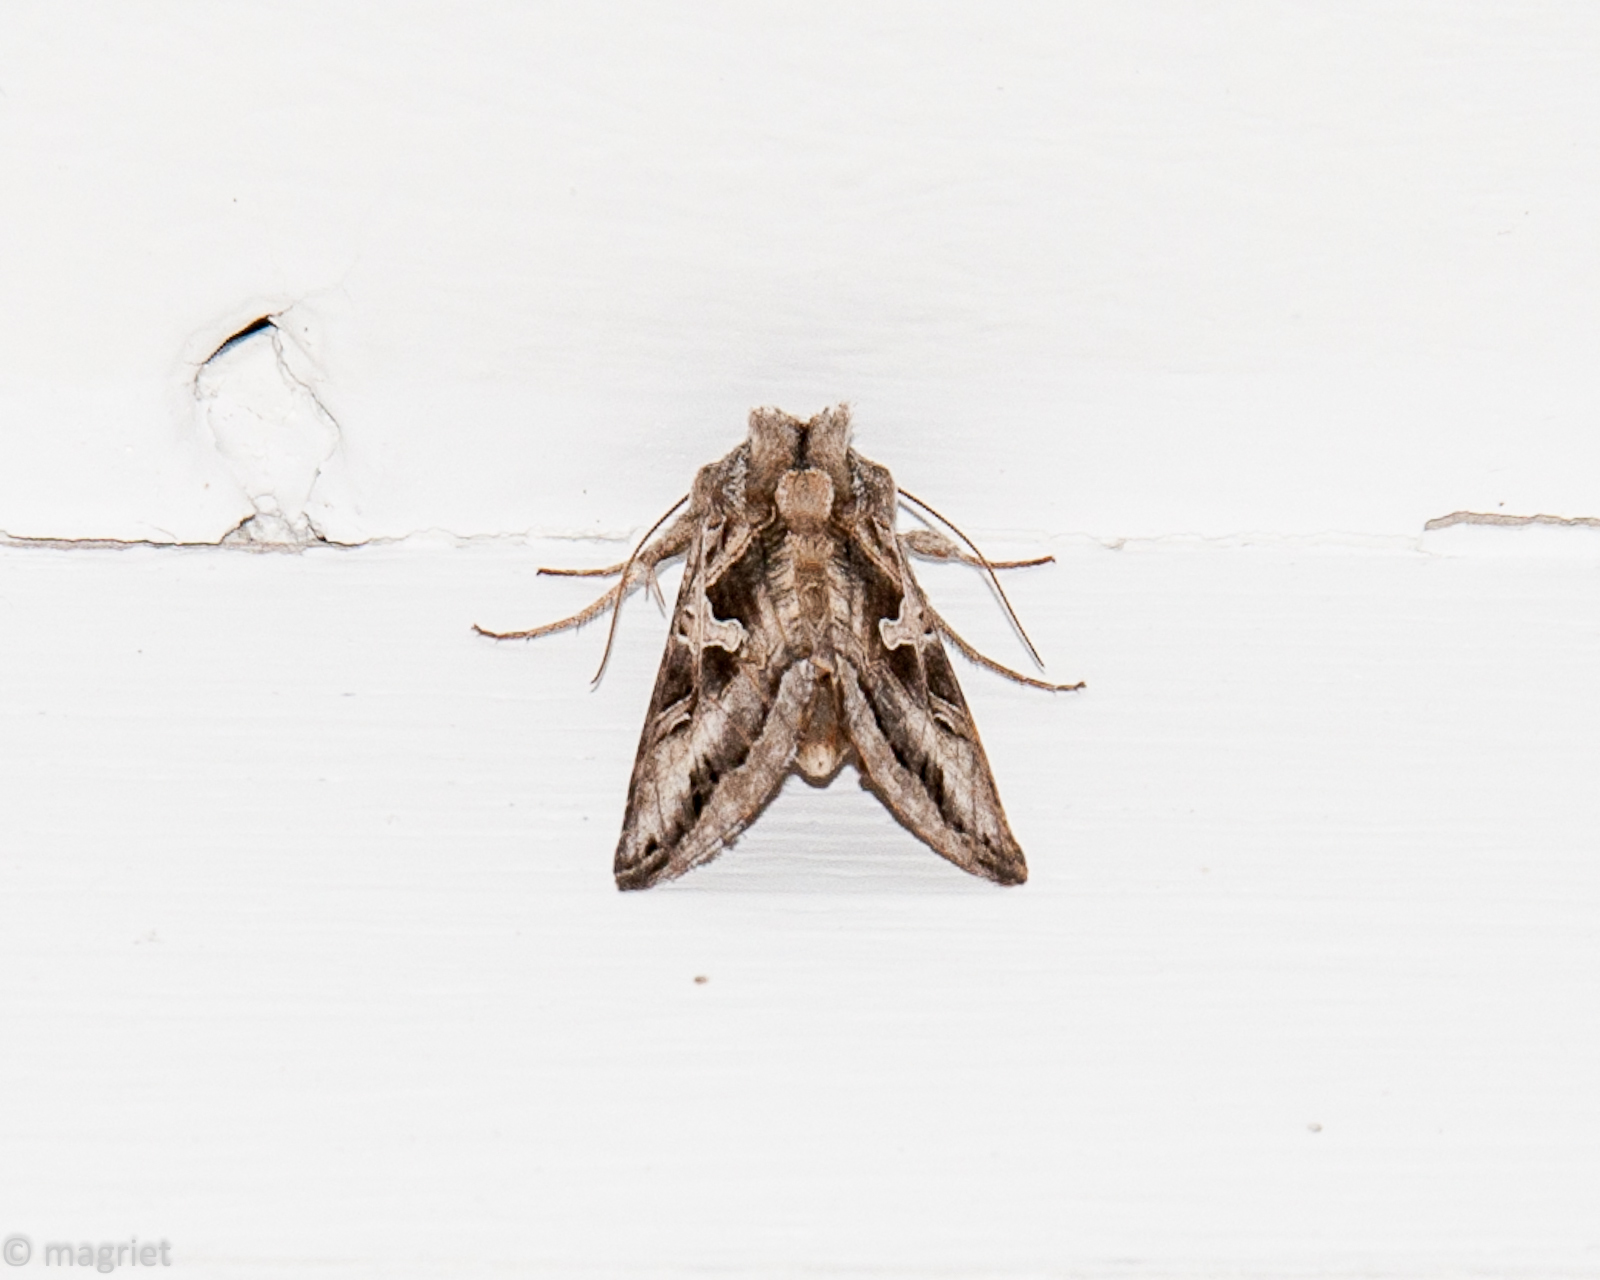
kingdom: Animalia
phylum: Arthropoda
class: Insecta
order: Lepidoptera
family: Noctuidae
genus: Cornutiplusia
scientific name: Cornutiplusia circumflexa
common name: Yorkshire y
